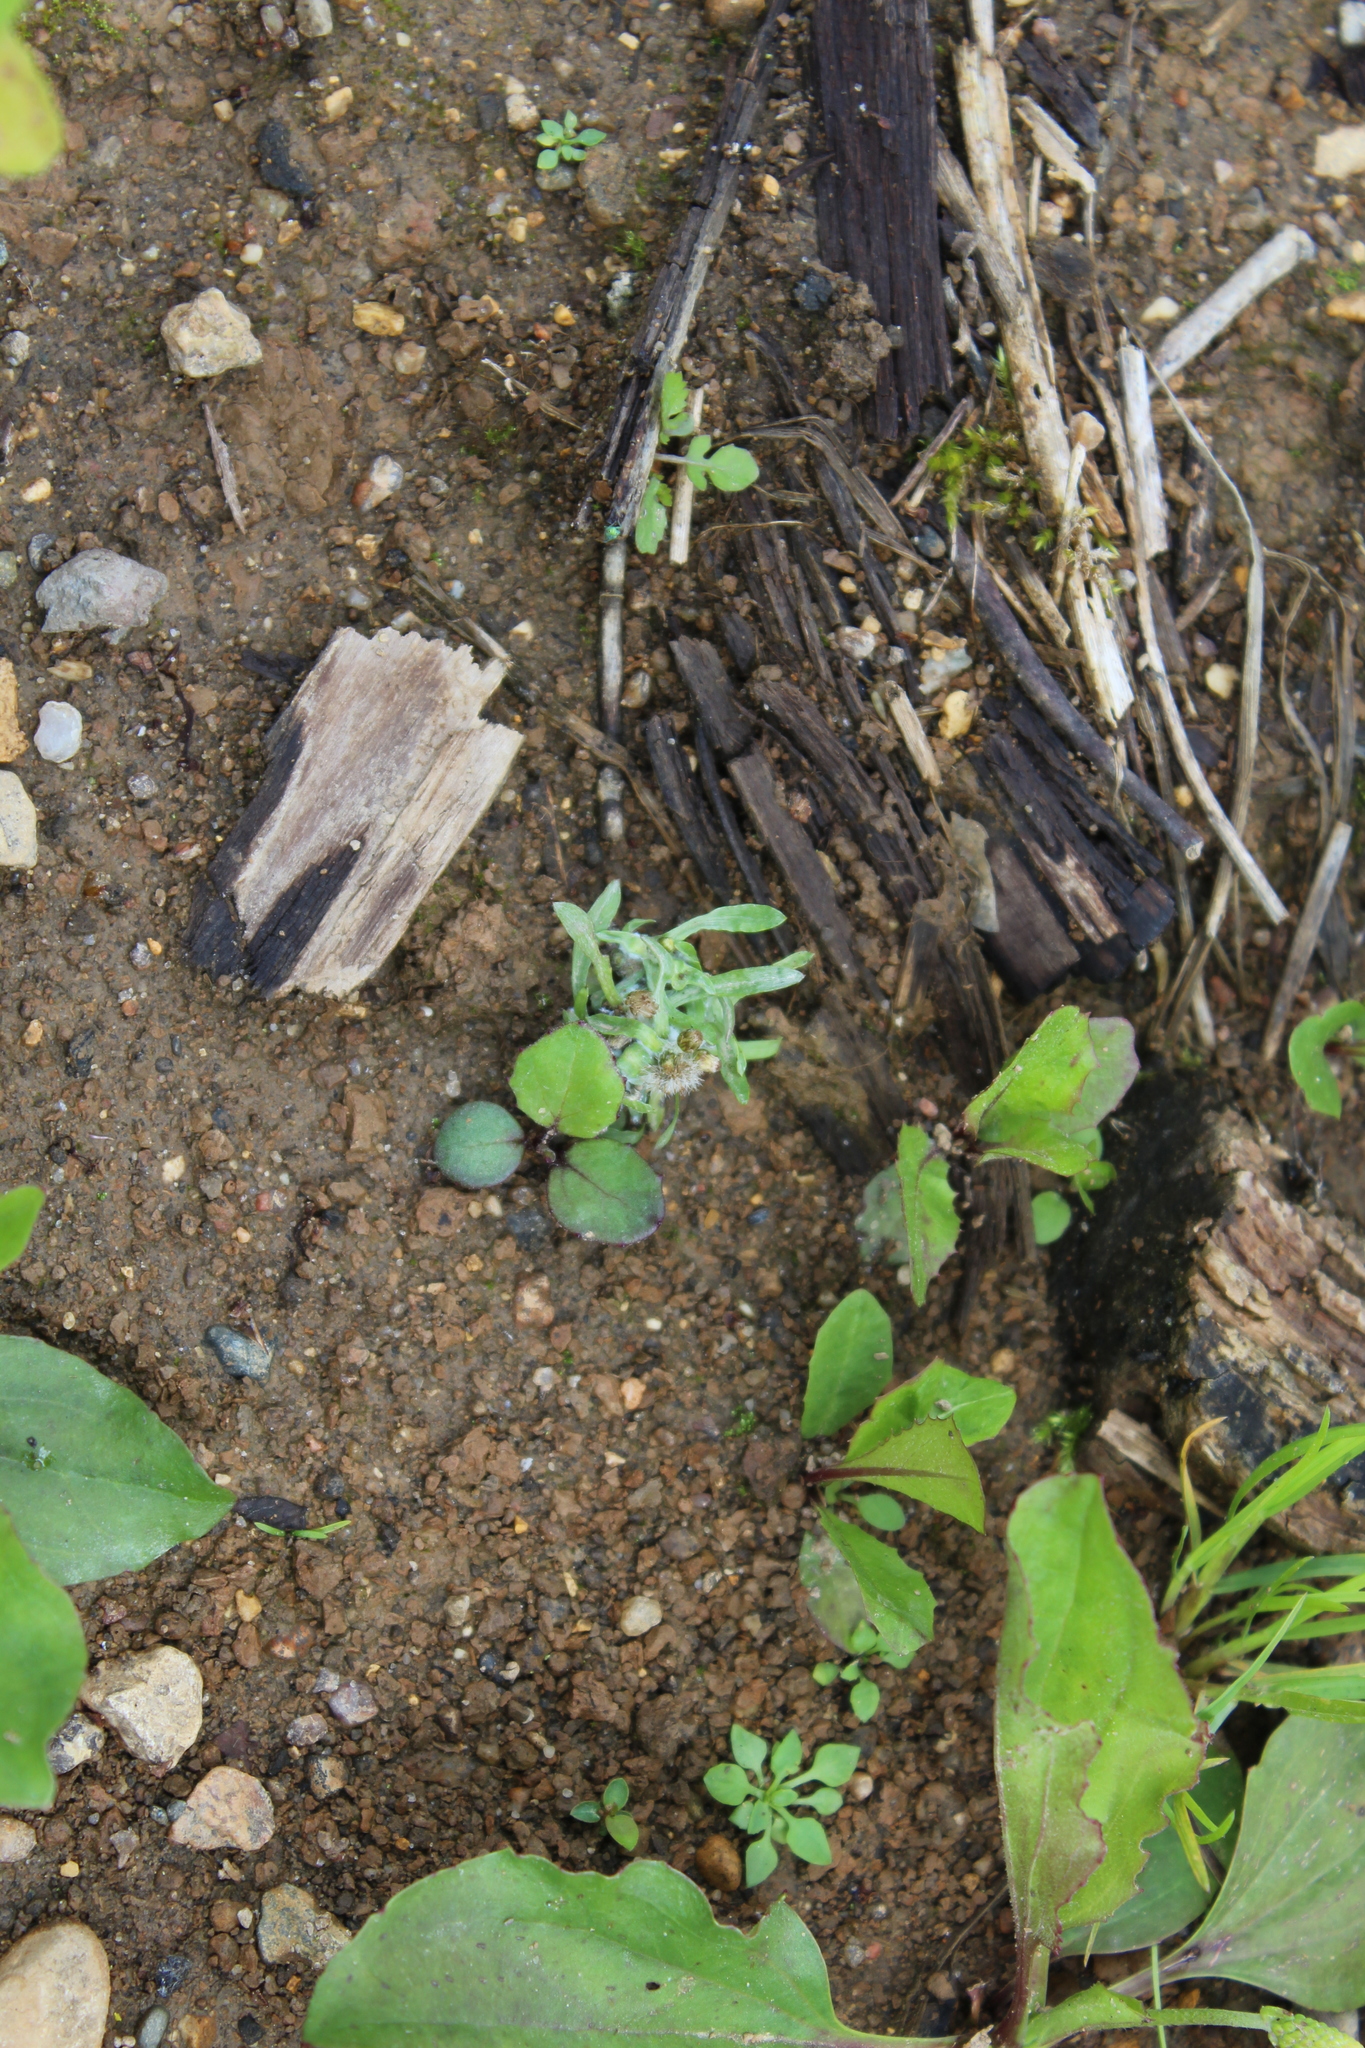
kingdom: Plantae
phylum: Tracheophyta
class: Magnoliopsida
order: Asterales
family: Asteraceae
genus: Gnaphalium
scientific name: Gnaphalium uliginosum
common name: Marsh cudweed
